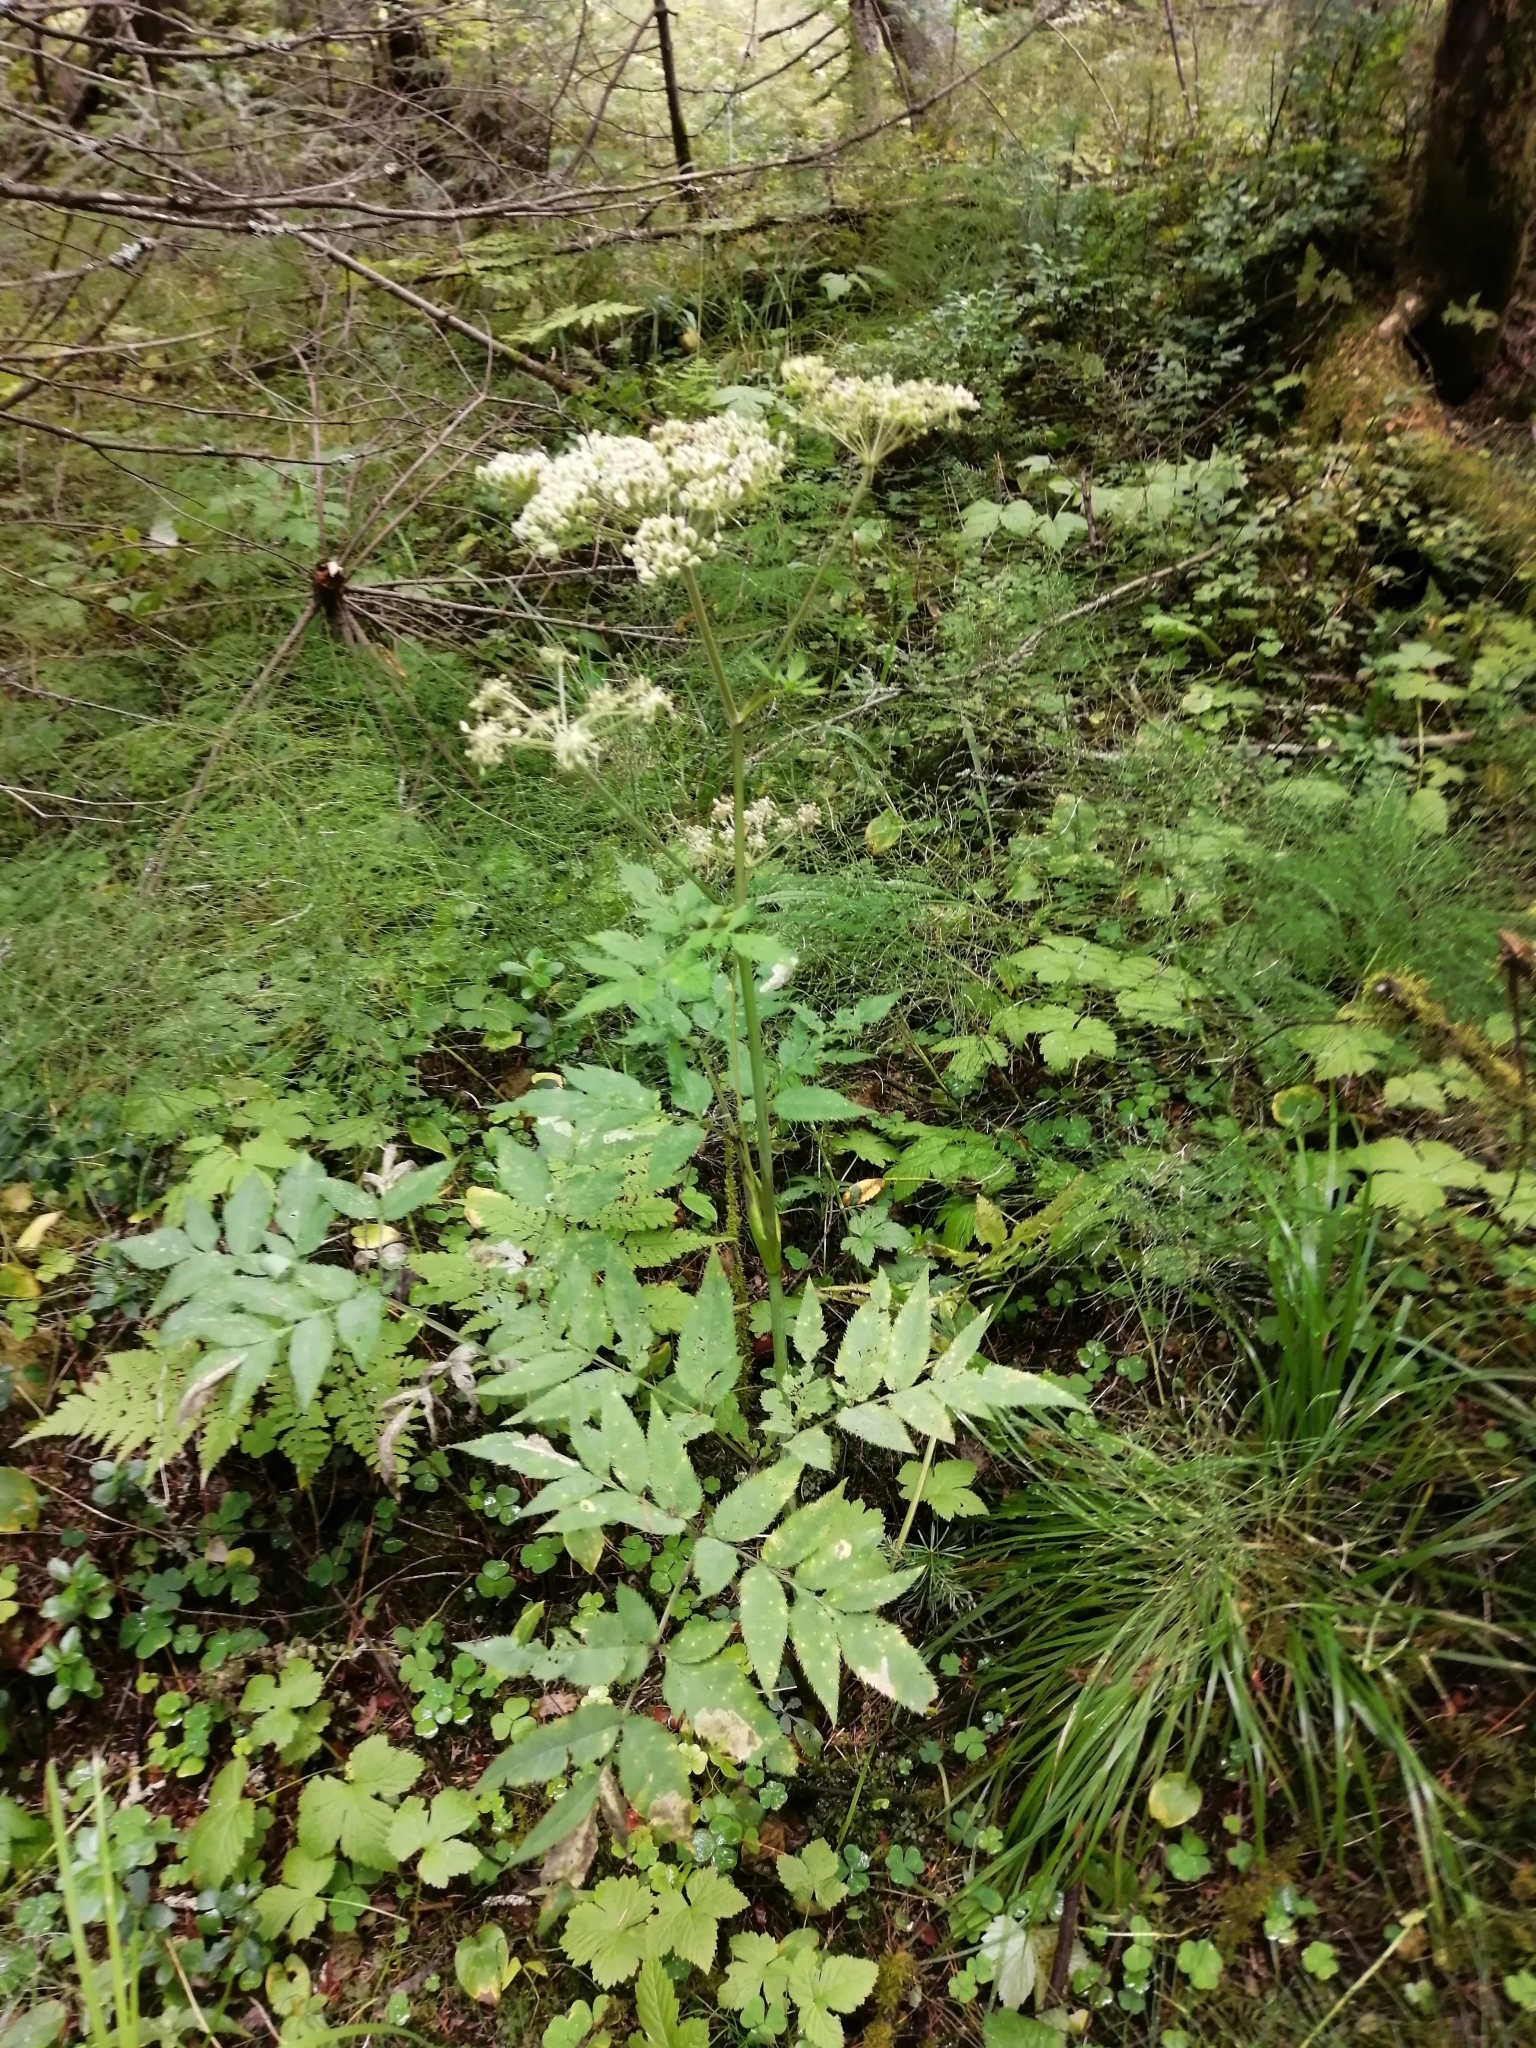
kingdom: Plantae
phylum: Tracheophyta
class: Magnoliopsida
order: Apiales
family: Apiaceae
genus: Angelica
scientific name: Angelica sylvestris
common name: Wild angelica
